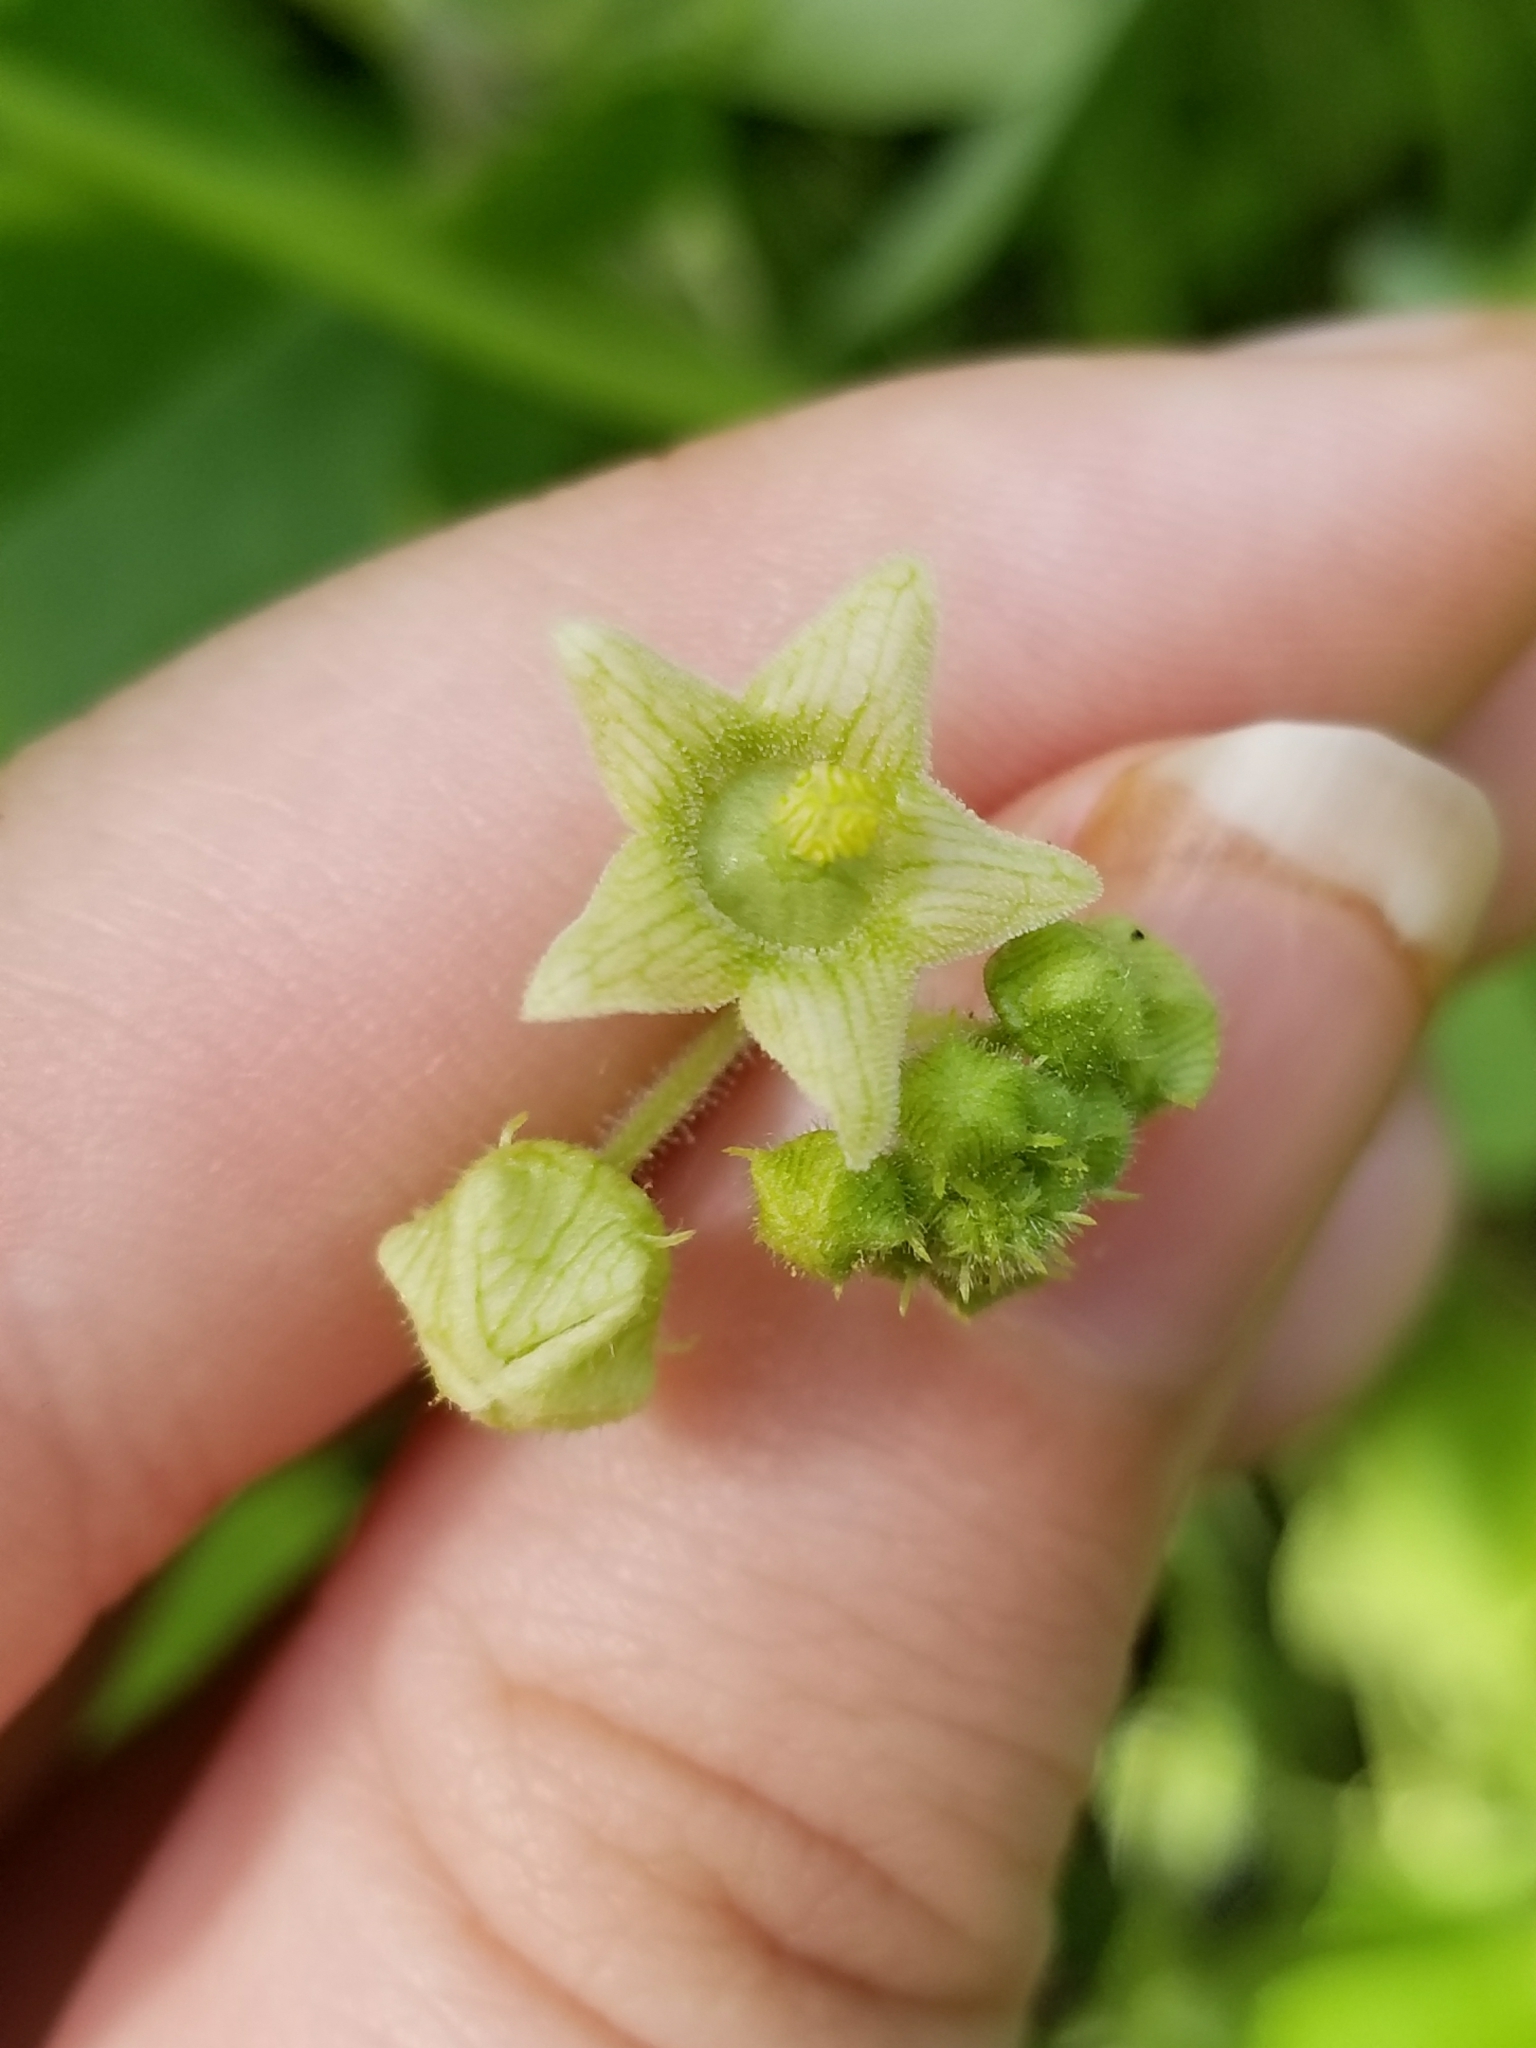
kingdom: Plantae
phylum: Tracheophyta
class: Magnoliopsida
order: Cucurbitales
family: Cucurbitaceae
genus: Sicyos
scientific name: Sicyos angulatus
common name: Angled burr cucumber
